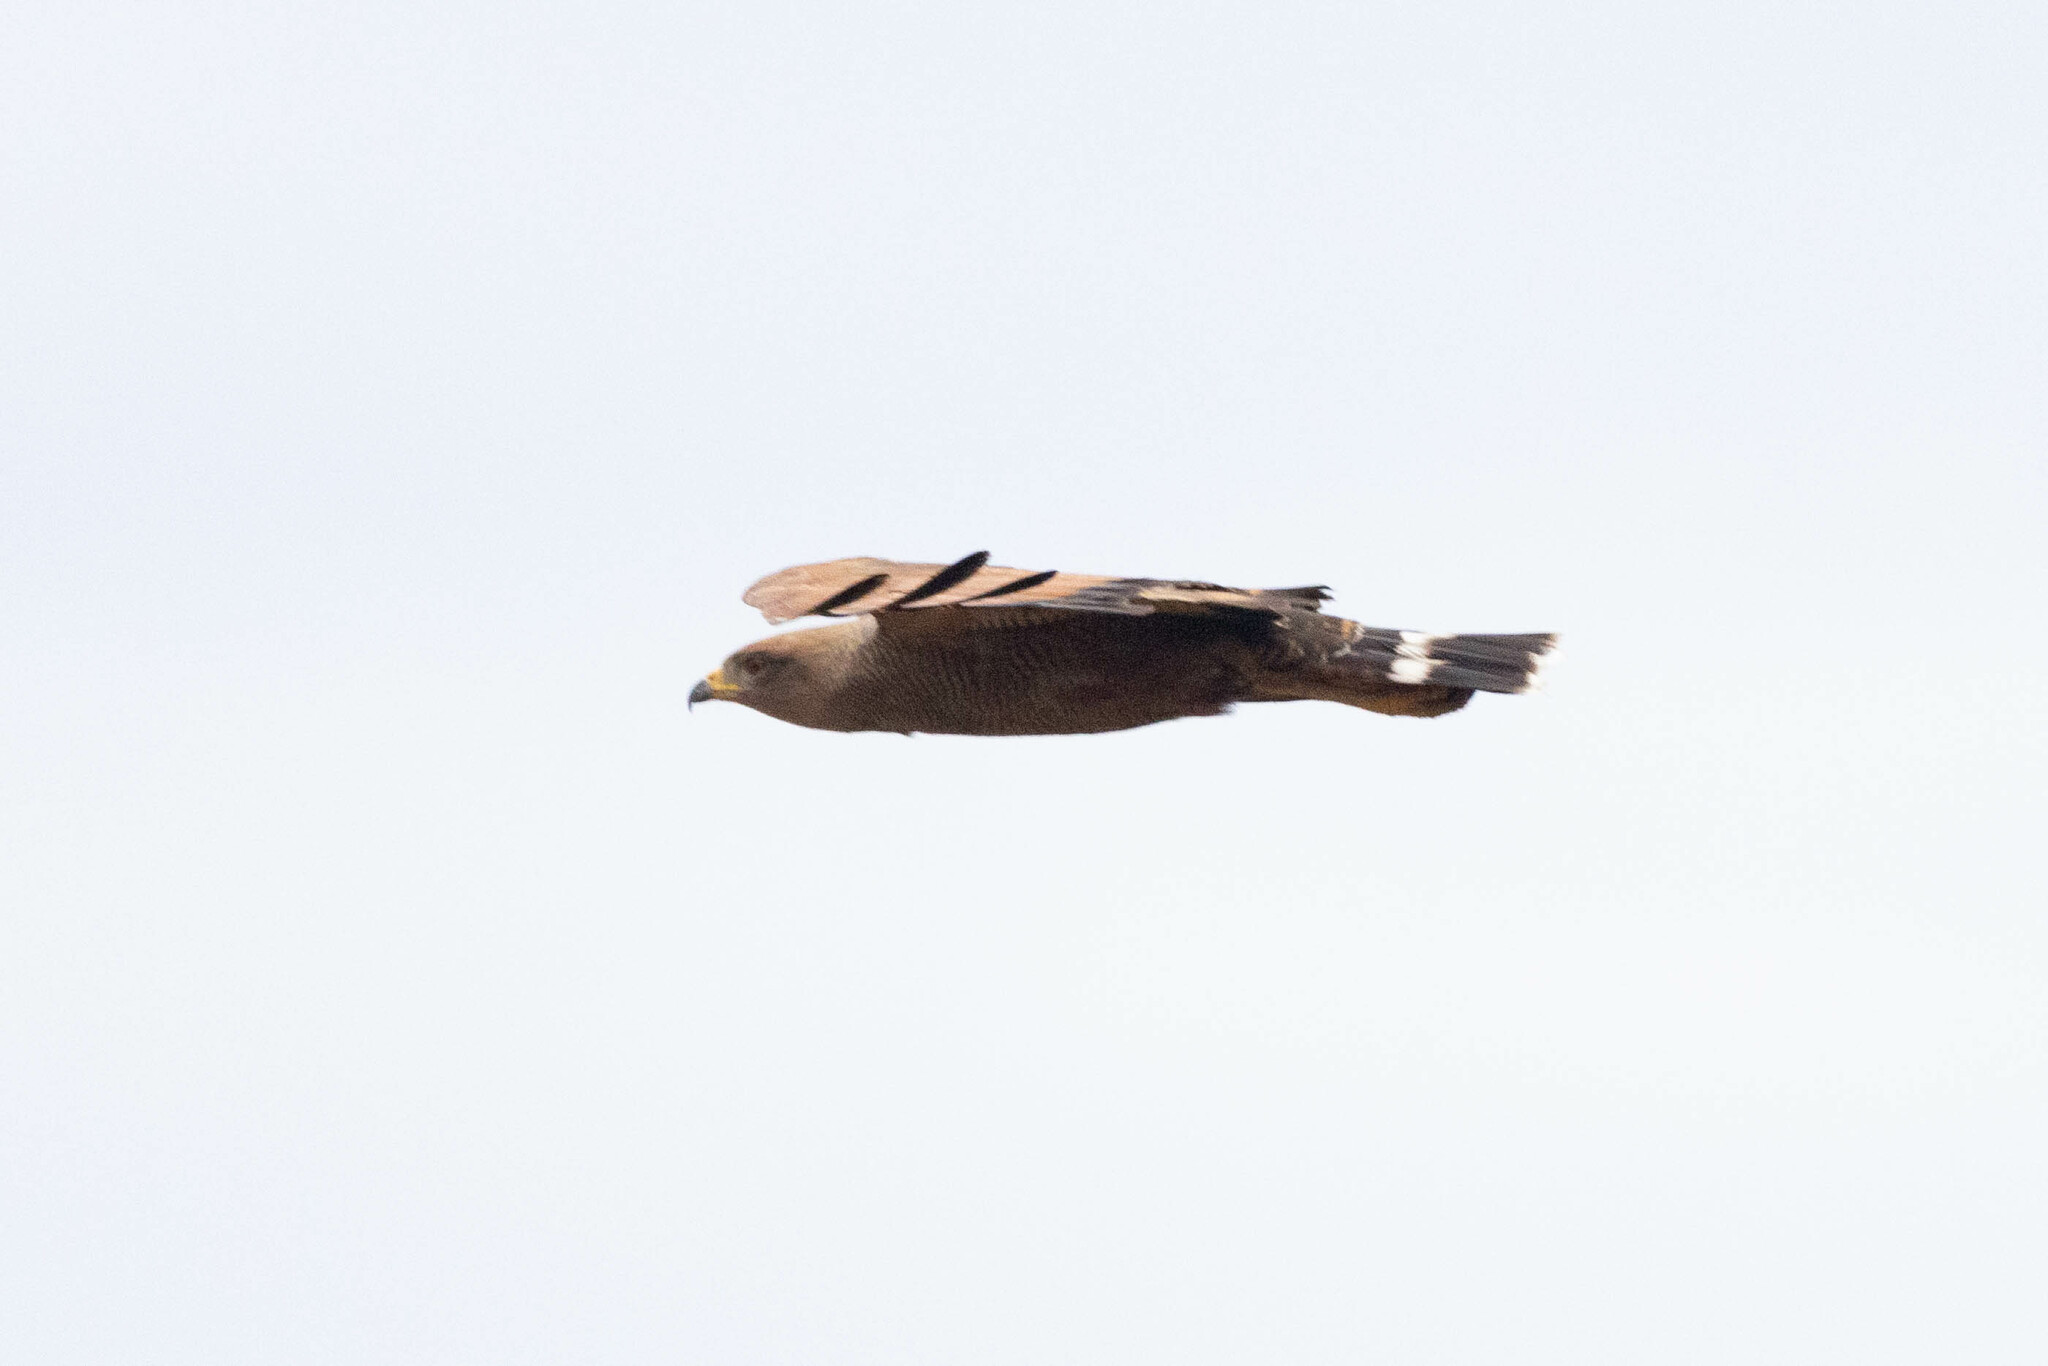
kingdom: Animalia
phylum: Chordata
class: Aves
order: Accipitriformes
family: Accipitridae
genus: Buteogallus
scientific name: Buteogallus meridionalis
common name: Savanna hawk
